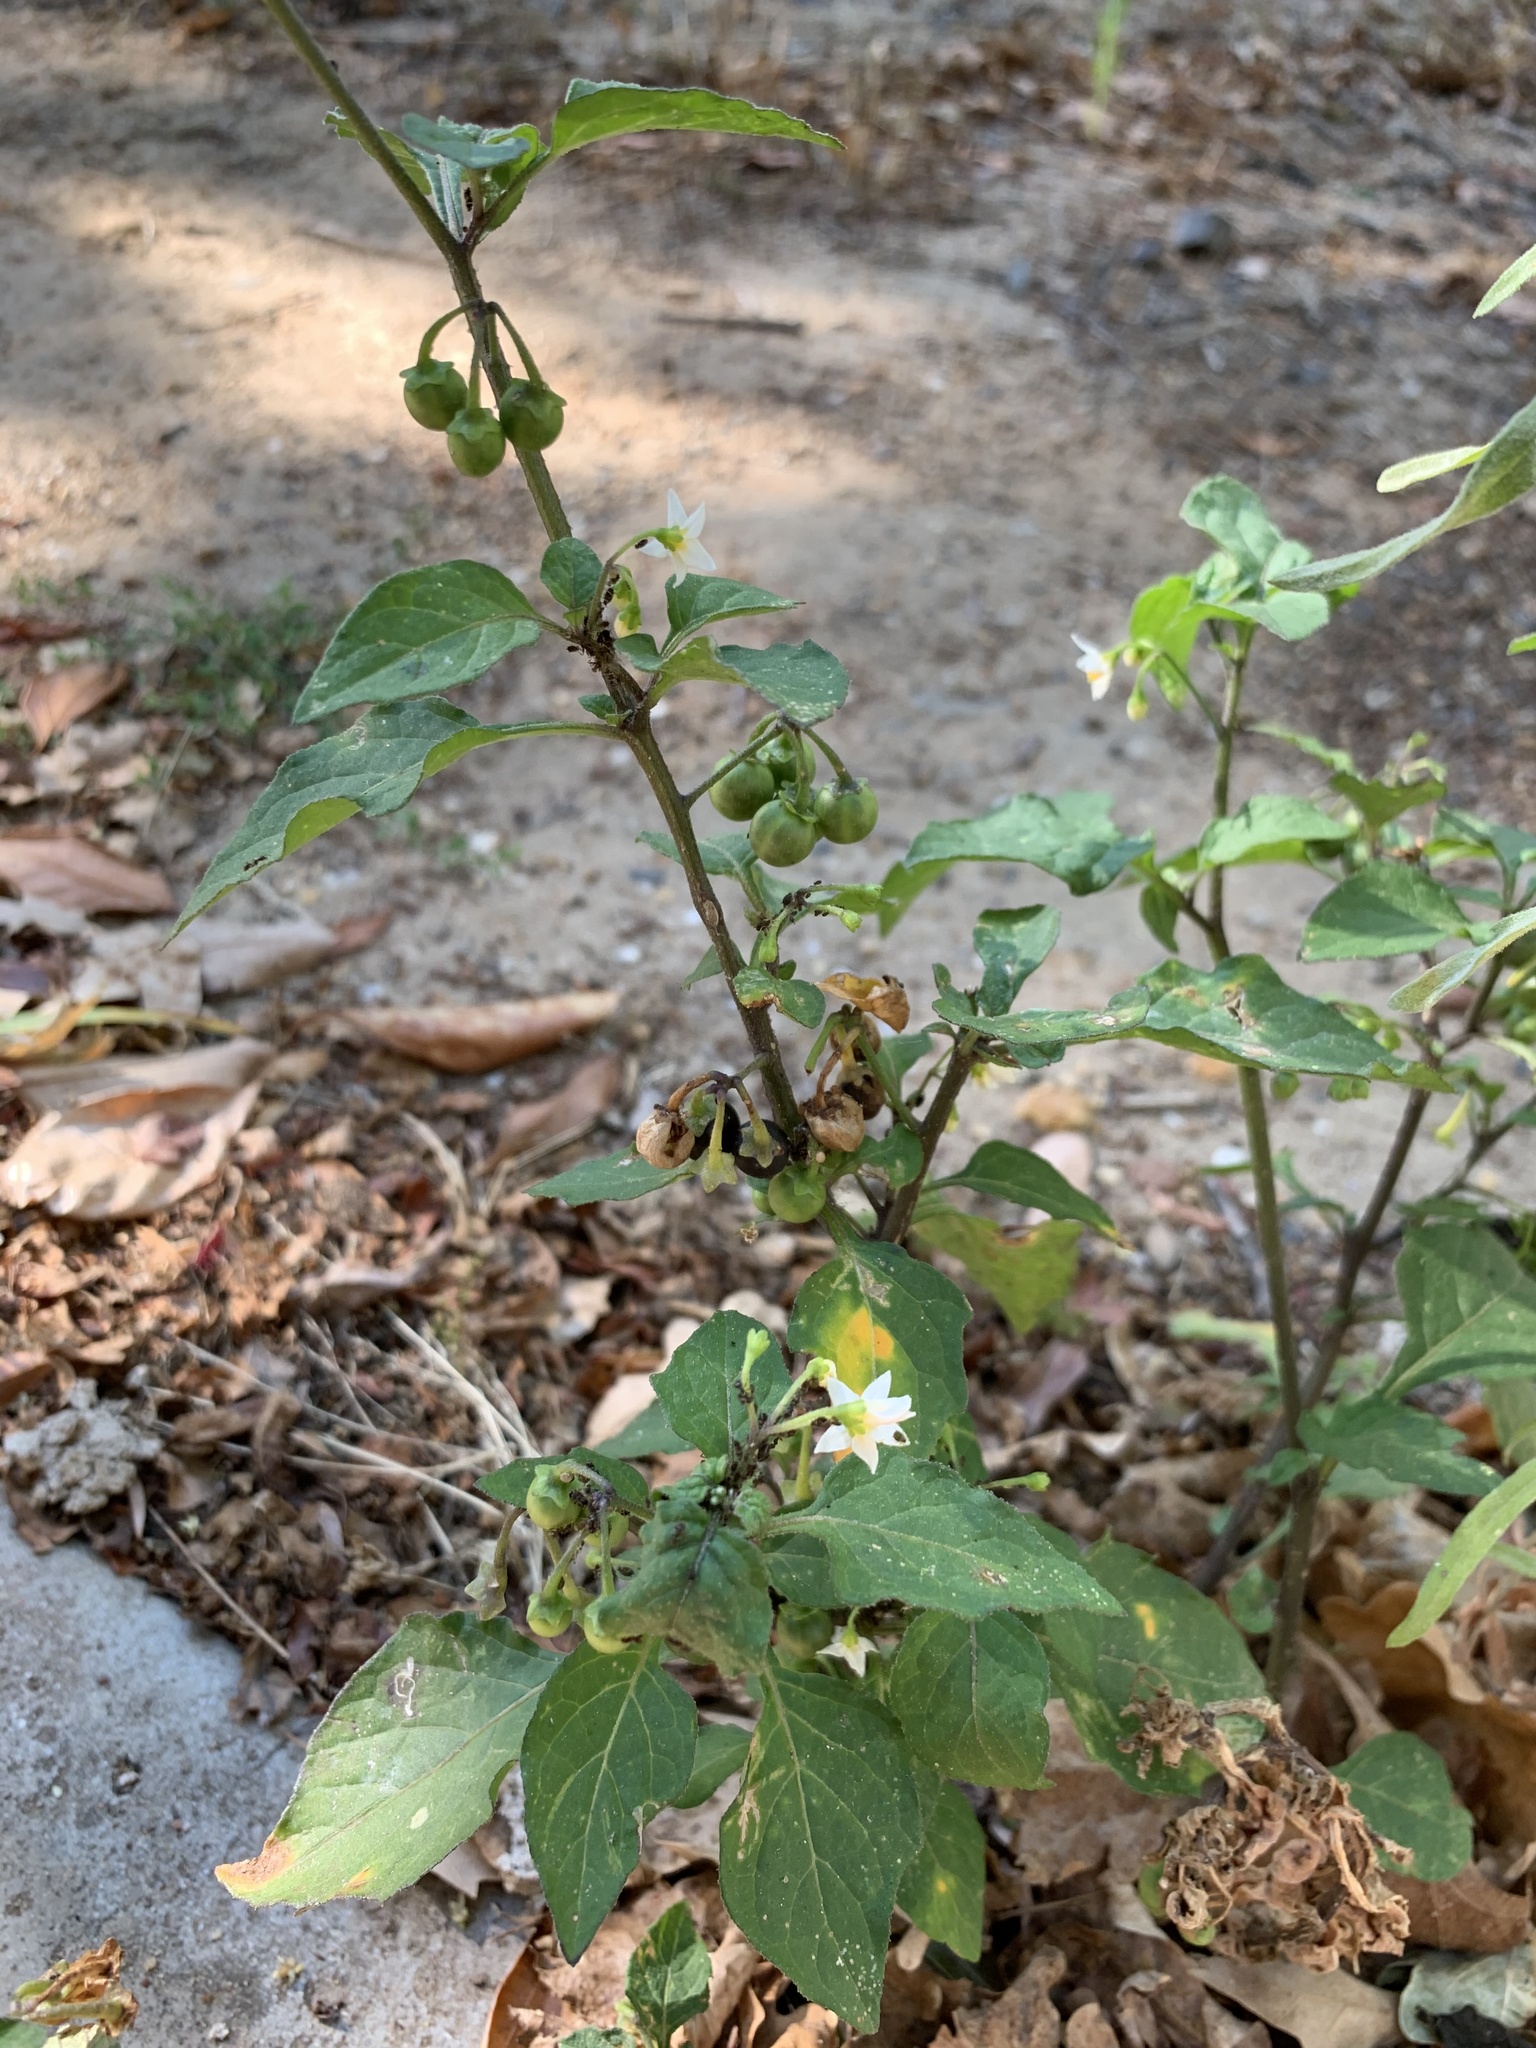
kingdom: Plantae
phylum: Tracheophyta
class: Magnoliopsida
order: Solanales
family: Solanaceae
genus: Solanum
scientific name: Solanum nigrum
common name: Black nightshade
